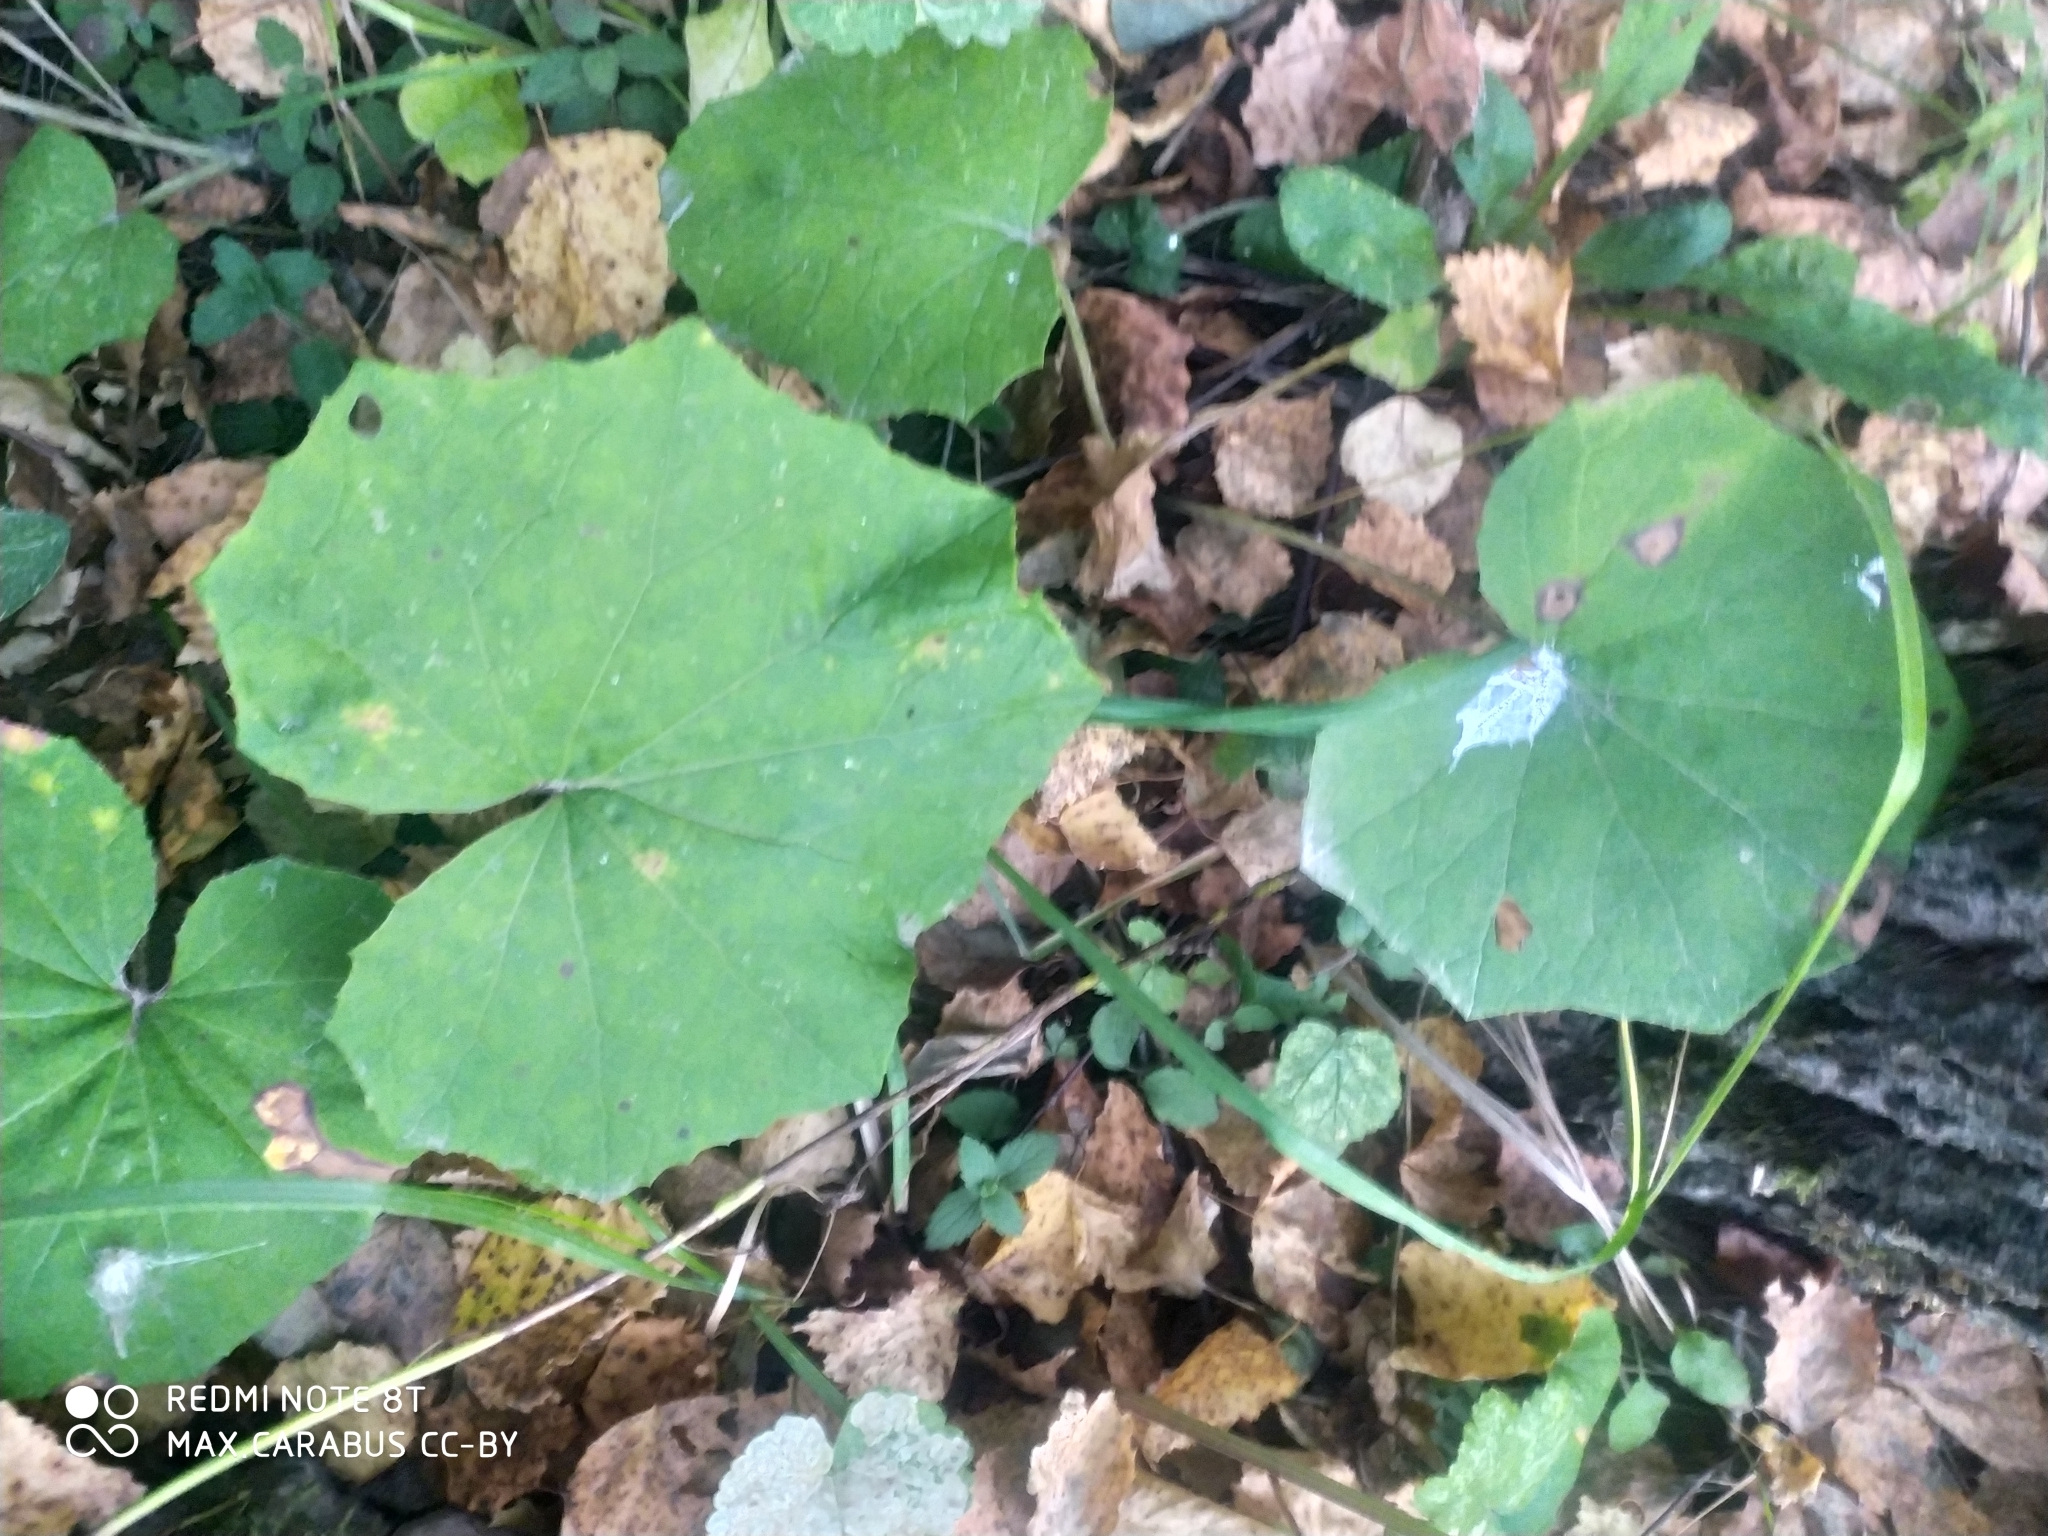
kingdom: Plantae
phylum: Tracheophyta
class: Magnoliopsida
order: Asterales
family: Asteraceae
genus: Tussilago
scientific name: Tussilago farfara
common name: Coltsfoot
